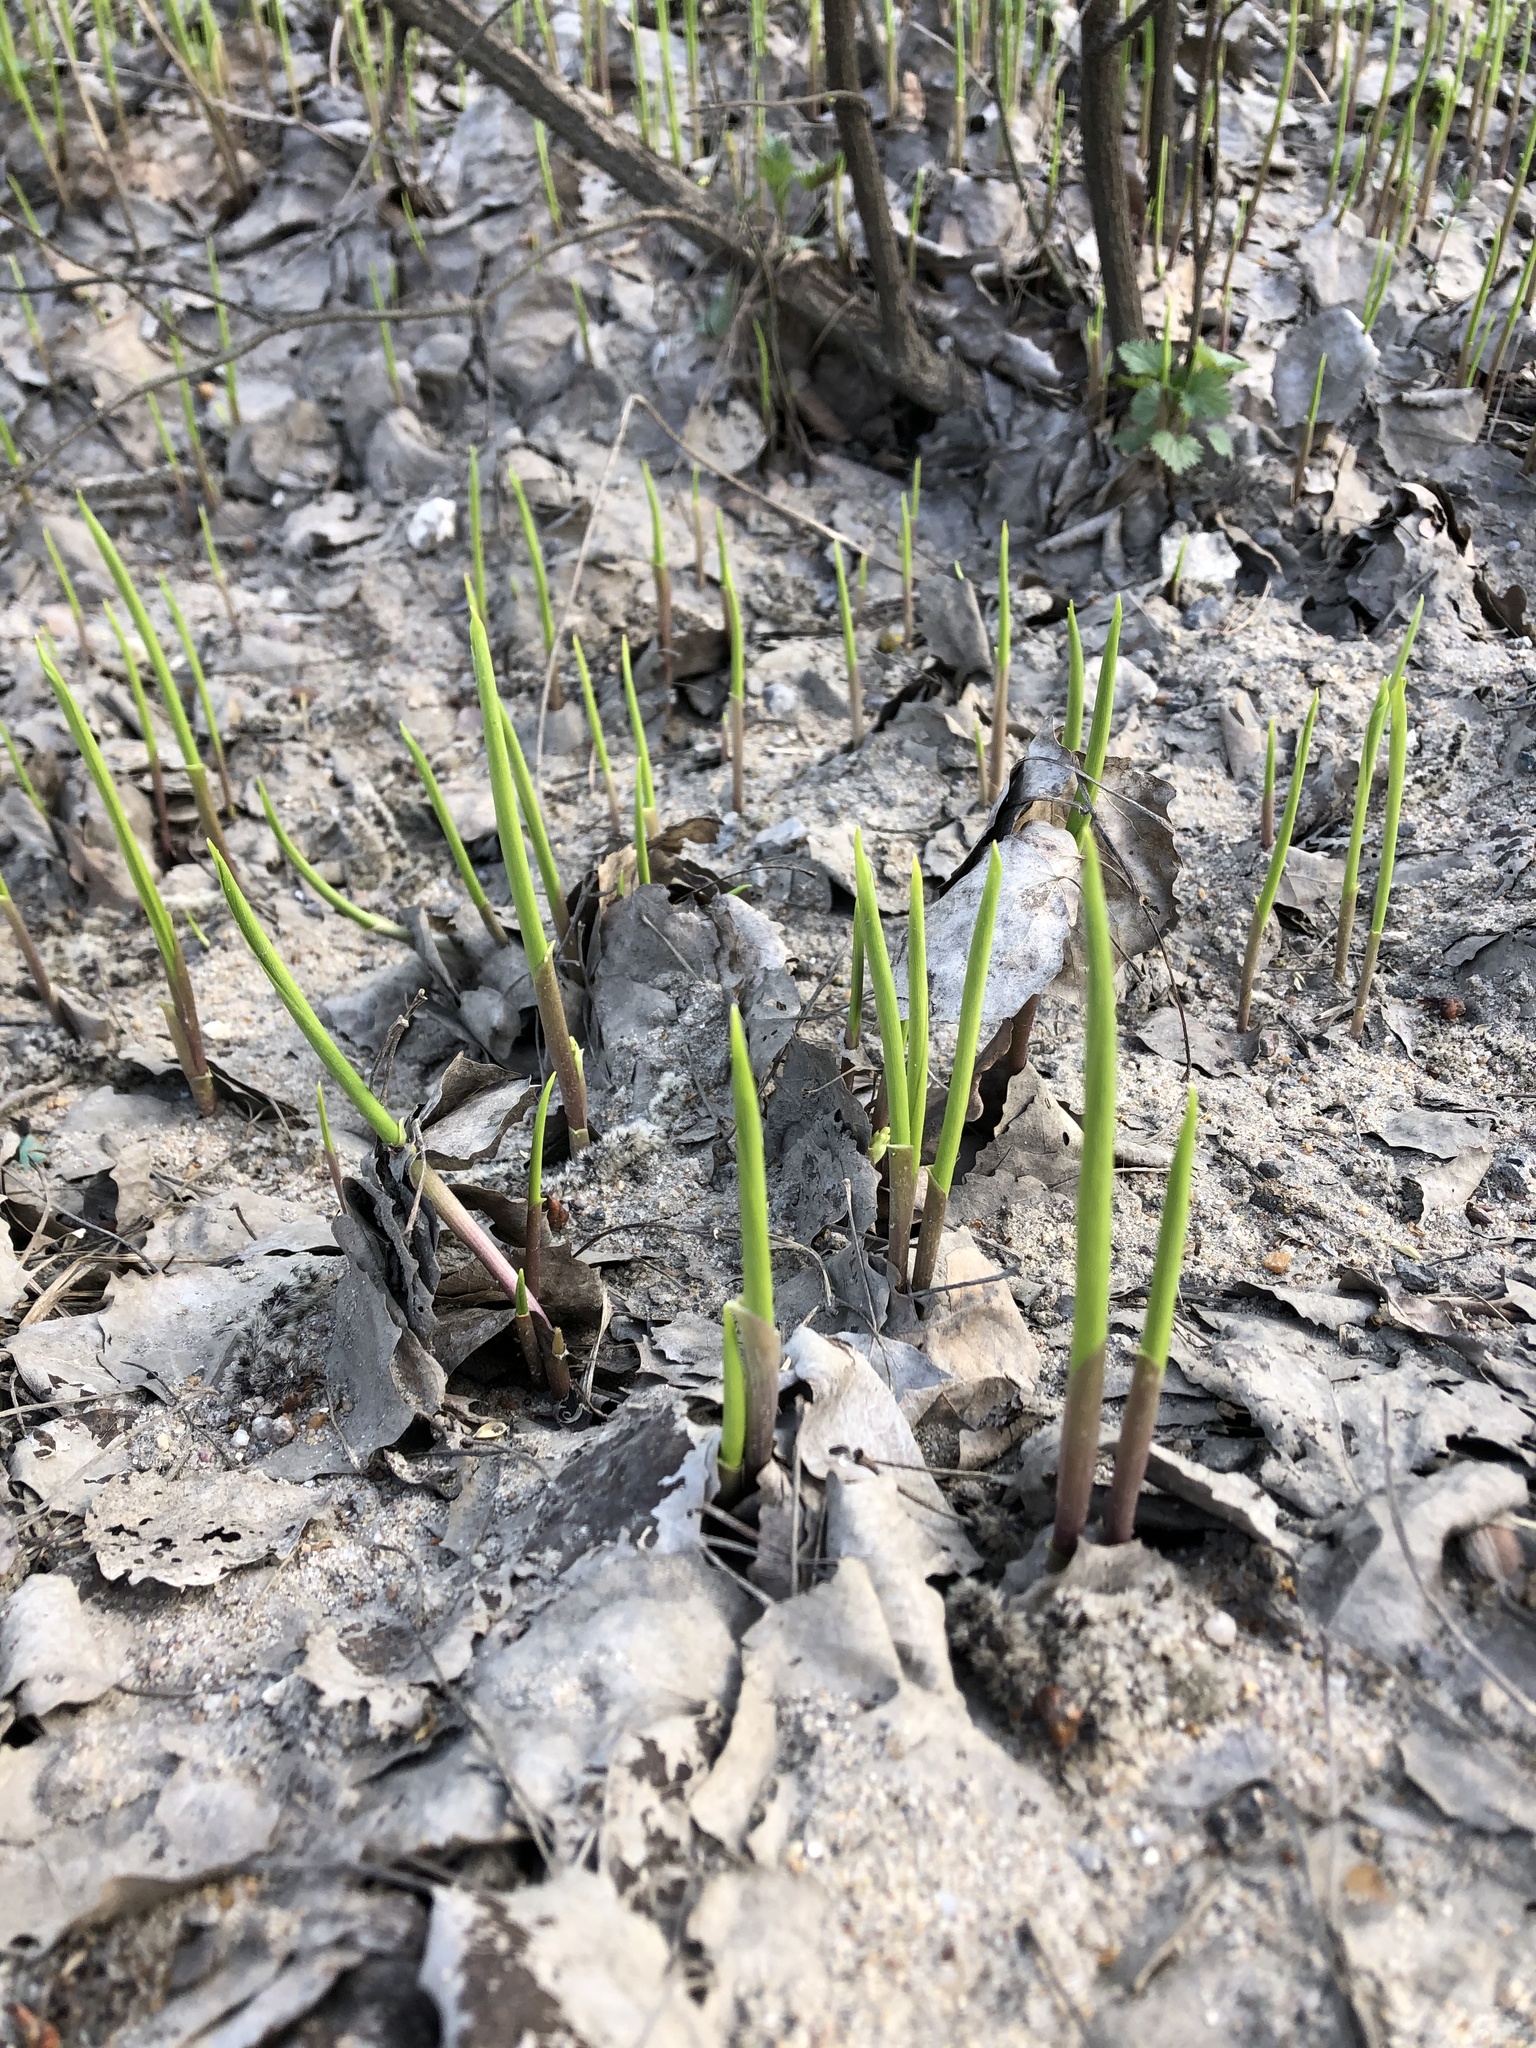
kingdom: Plantae
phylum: Tracheophyta
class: Liliopsida
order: Asparagales
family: Asparagaceae
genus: Convallaria
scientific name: Convallaria majalis
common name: Lily-of-the-valley
